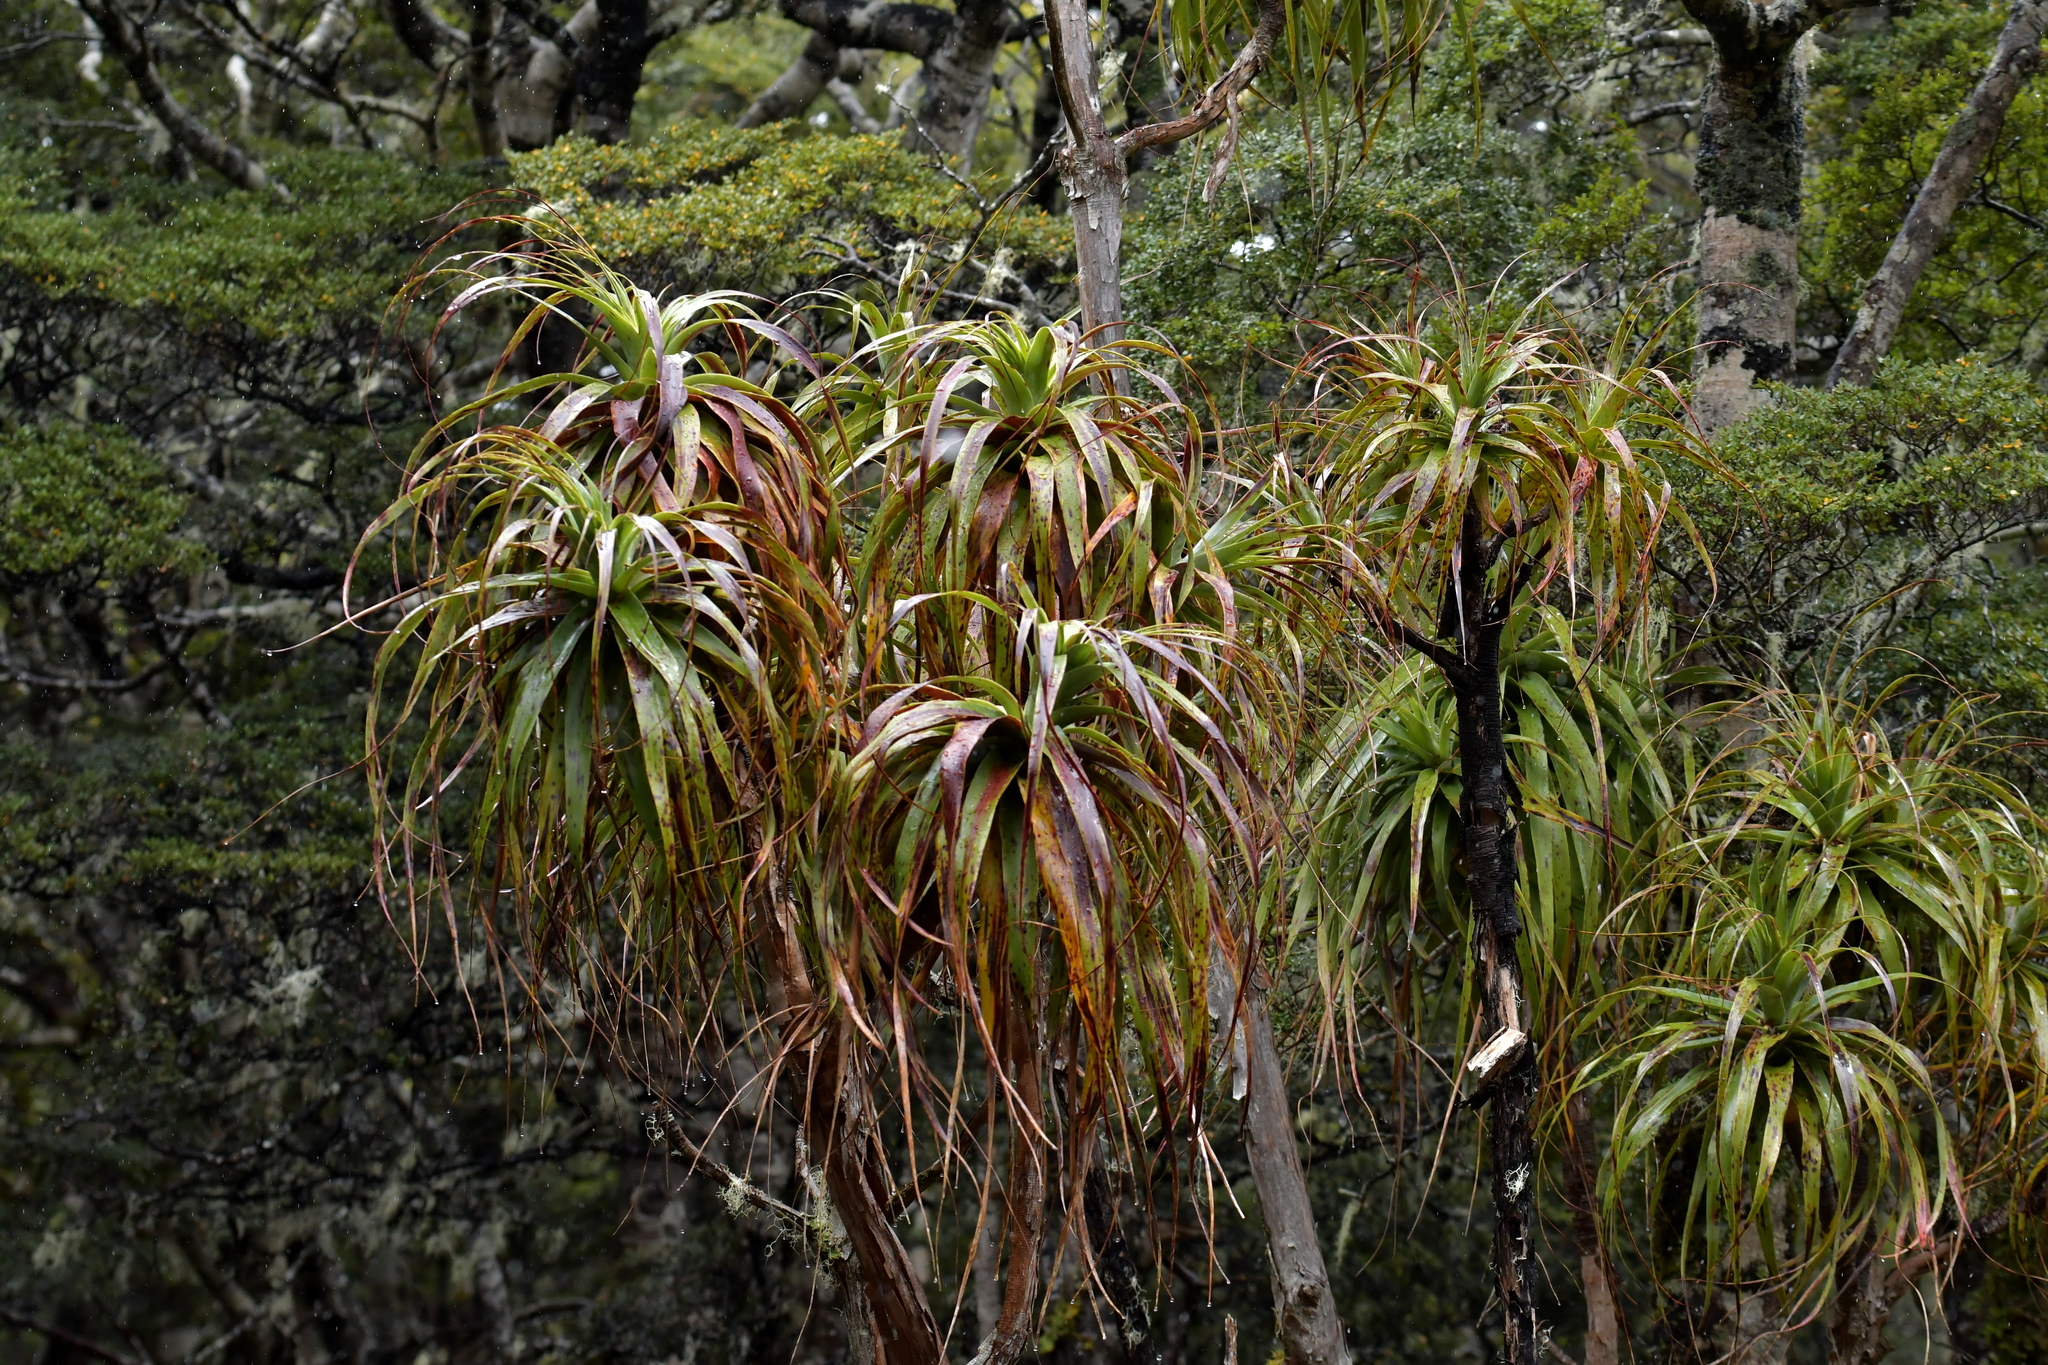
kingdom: Plantae
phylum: Tracheophyta
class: Magnoliopsida
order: Ericales
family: Ericaceae
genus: Dracophyllum
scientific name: Dracophyllum traversii
